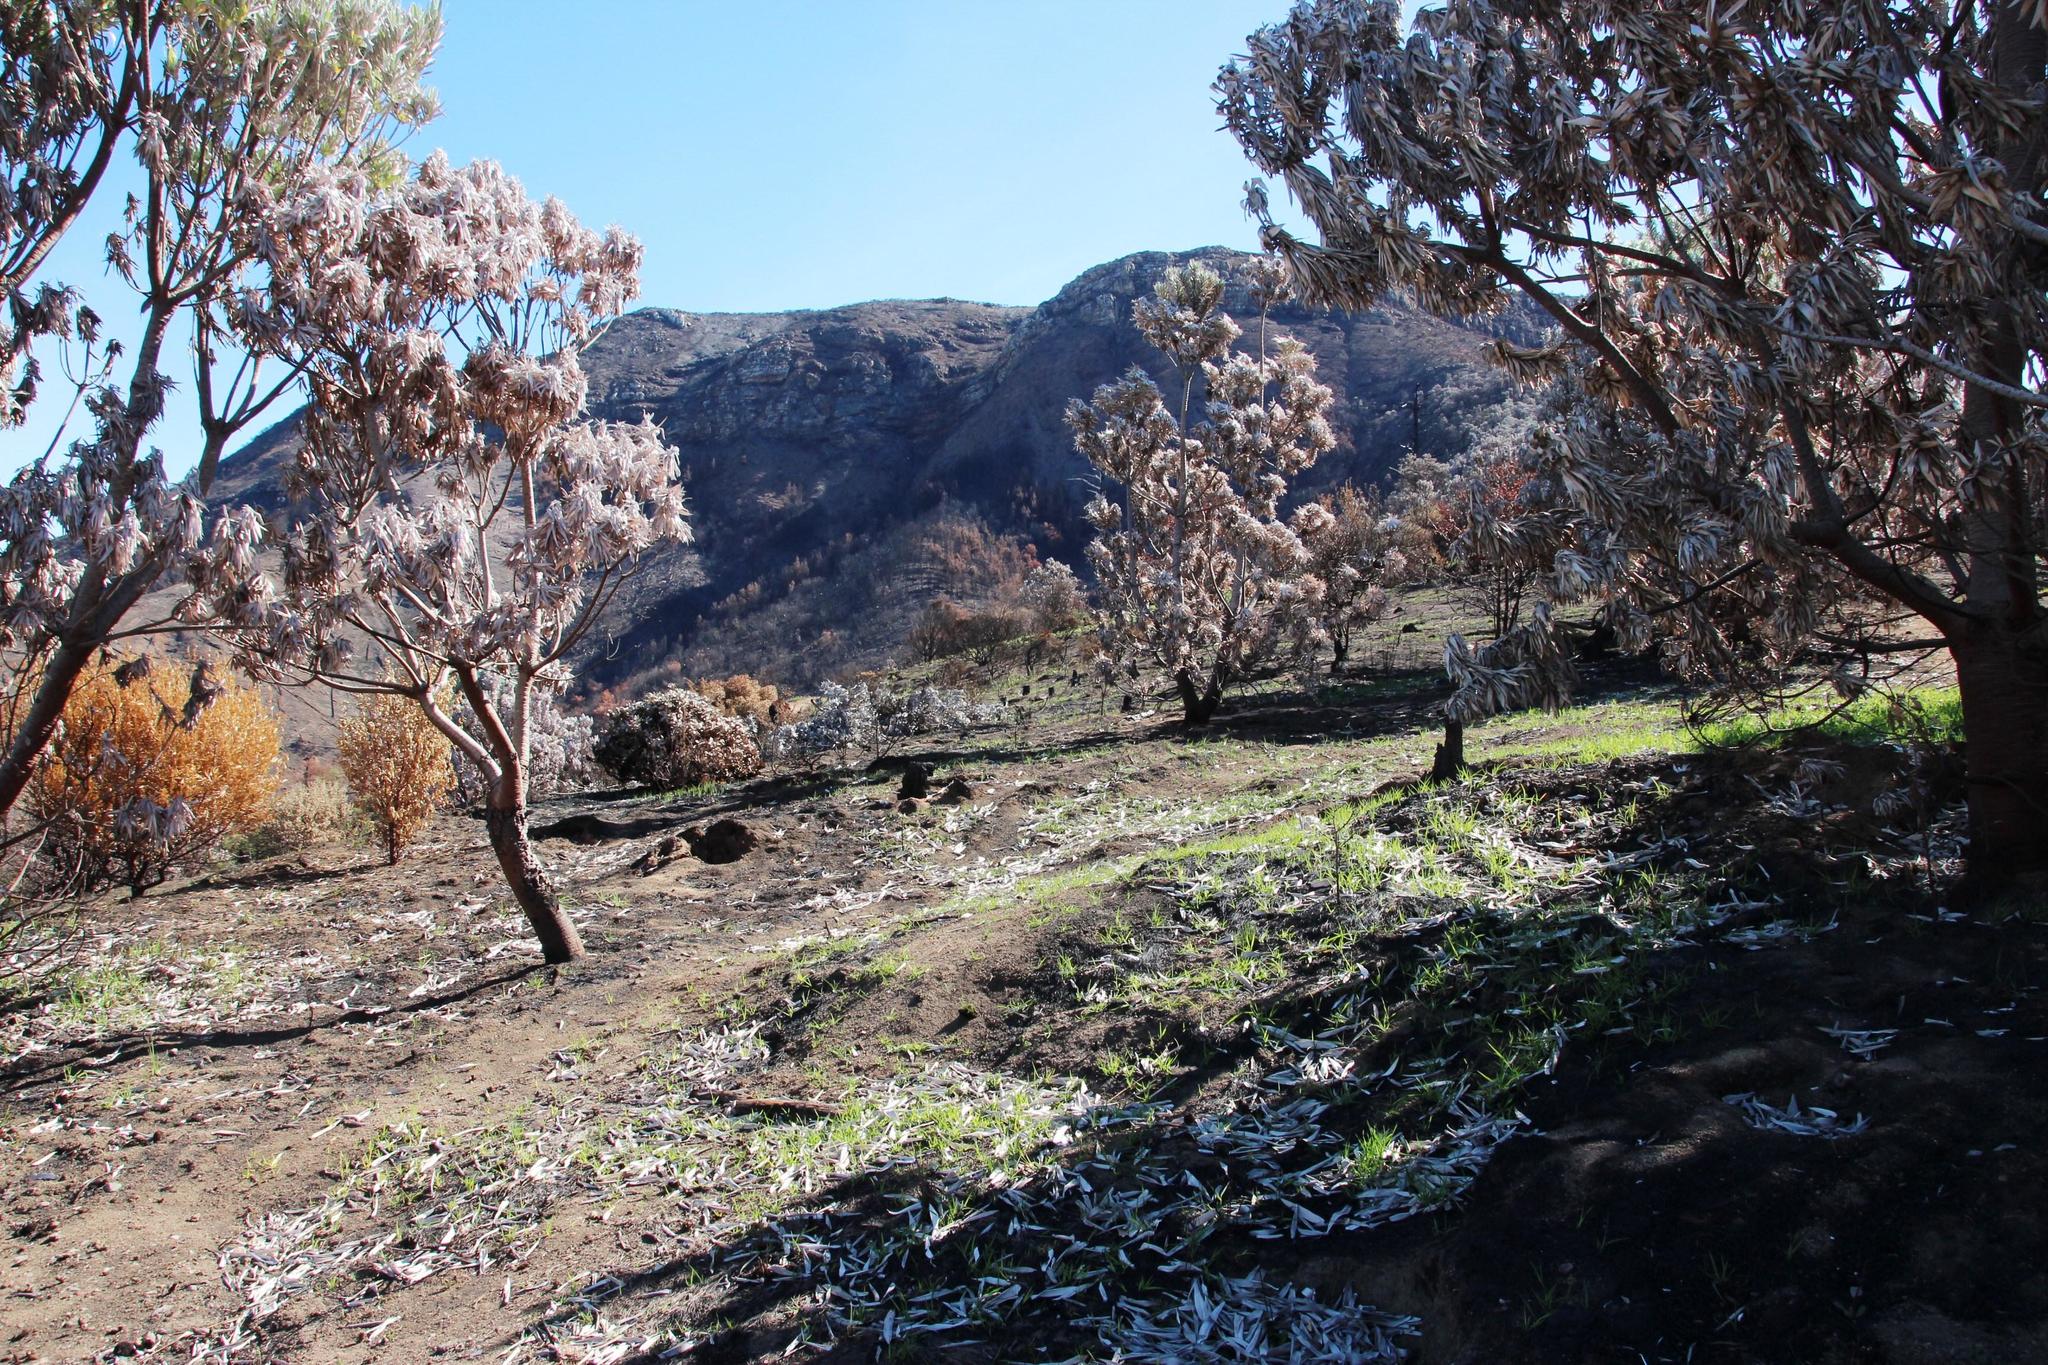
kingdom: Plantae
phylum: Tracheophyta
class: Magnoliopsida
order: Proteales
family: Proteaceae
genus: Leucadendron
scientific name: Leucadendron argenteum
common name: Cape silver tree
